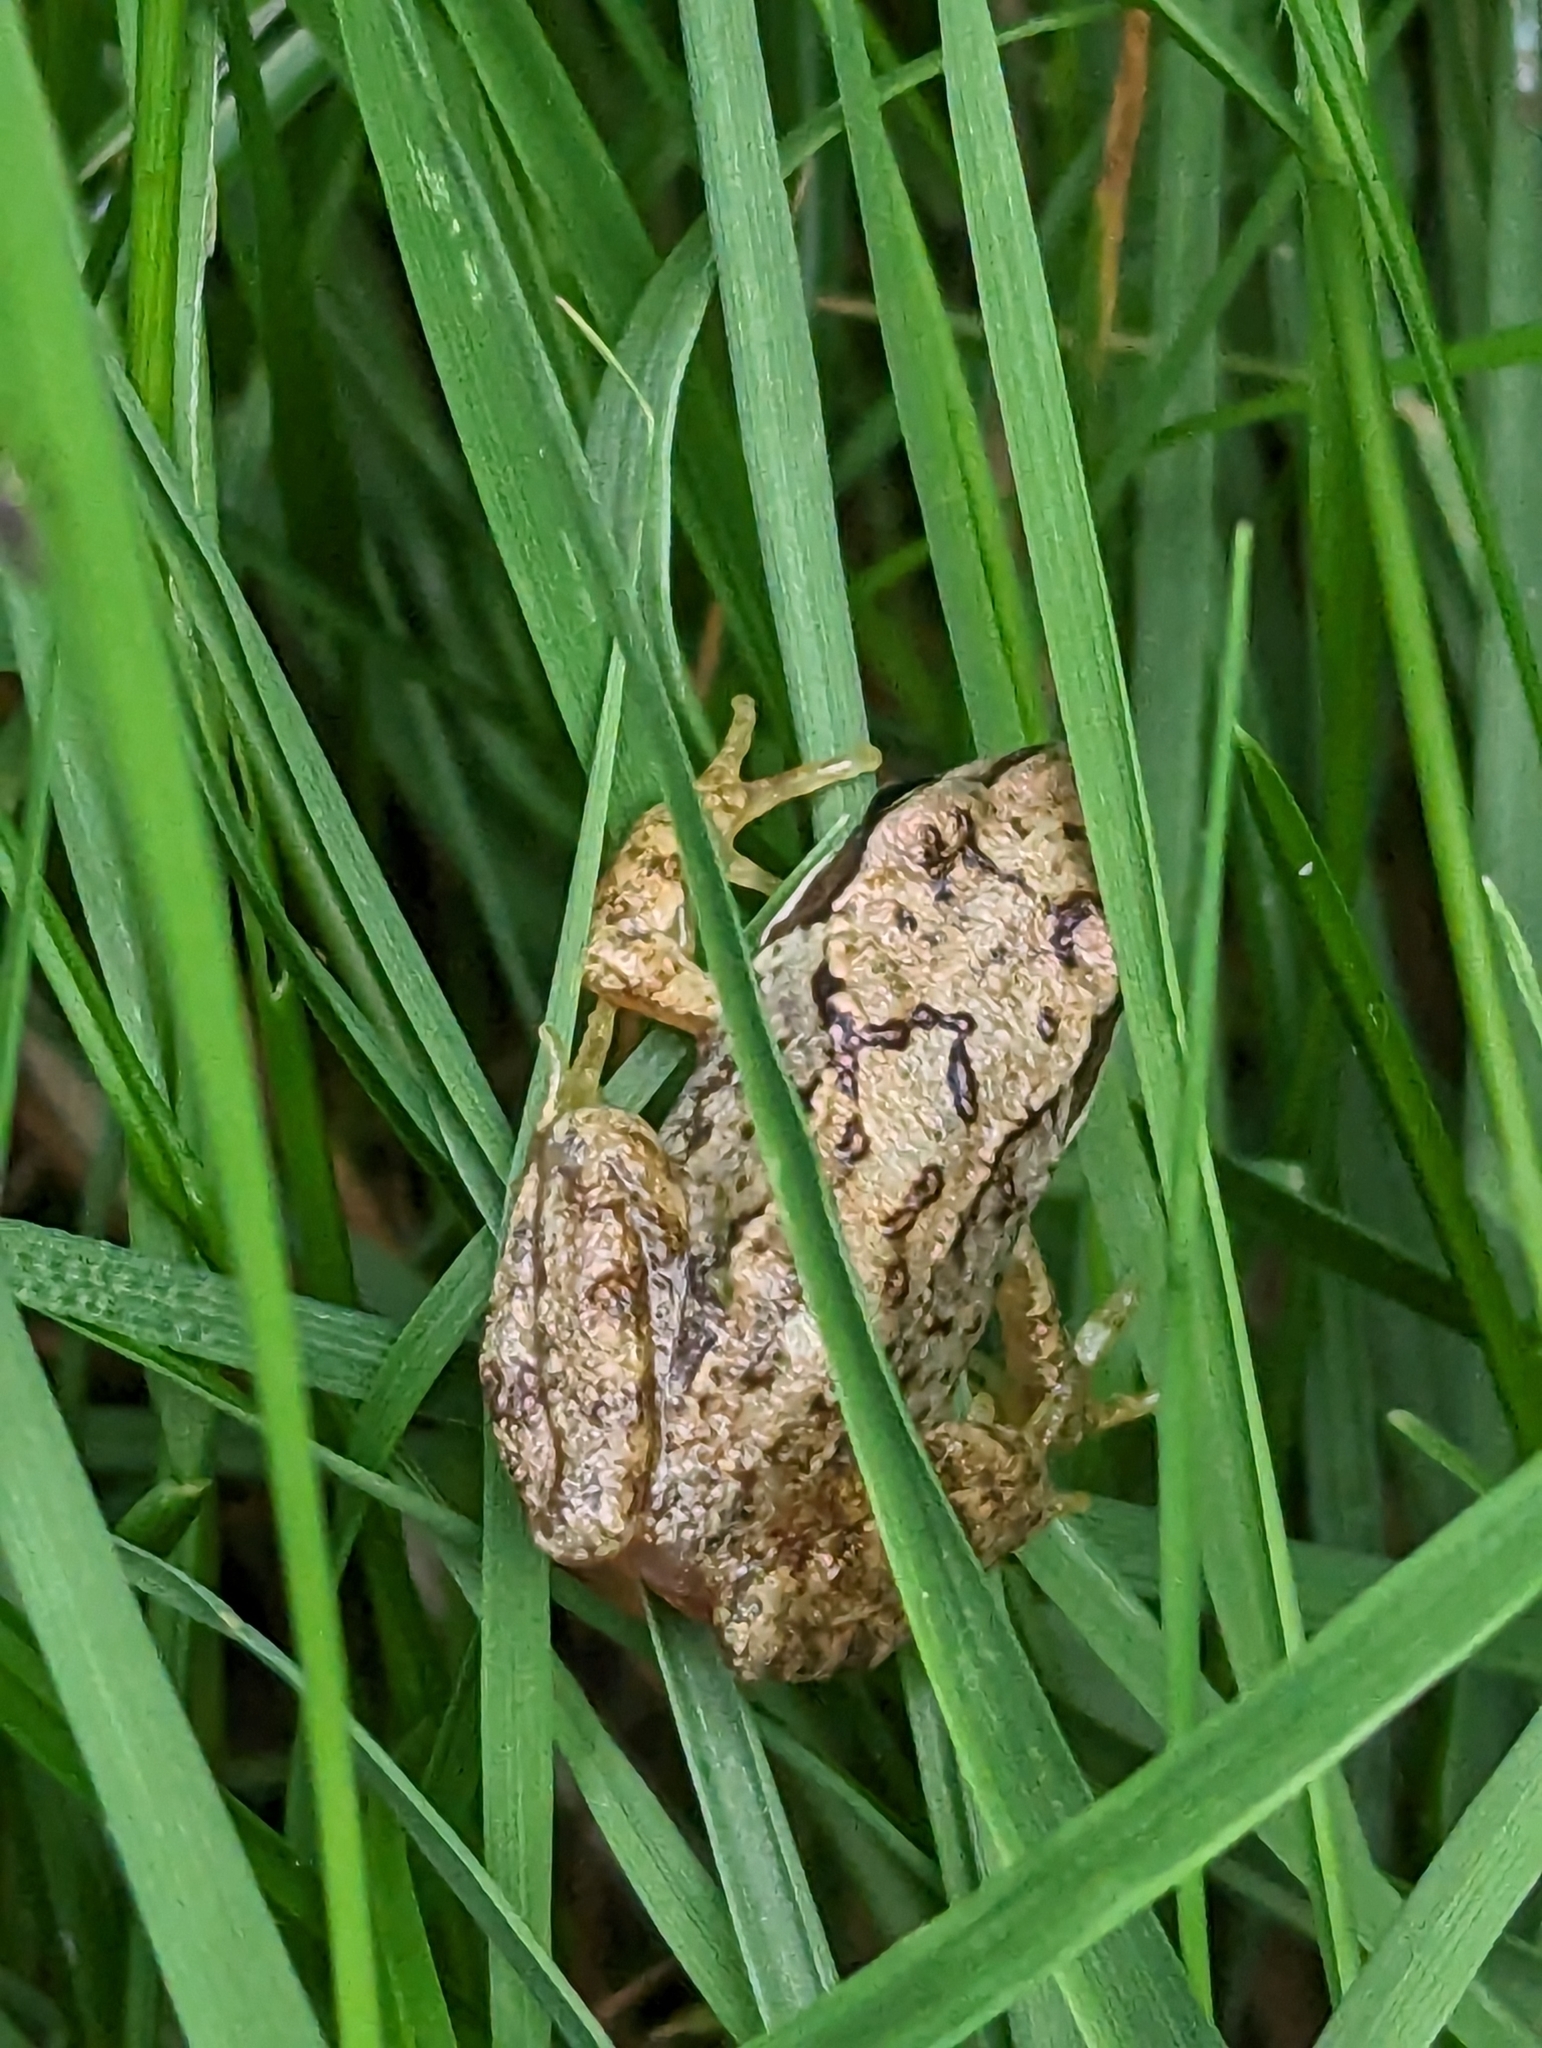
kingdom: Animalia
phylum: Chordata
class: Amphibia
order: Anura
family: Ranidae
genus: Rana
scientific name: Rana temporaria
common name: Common frog
